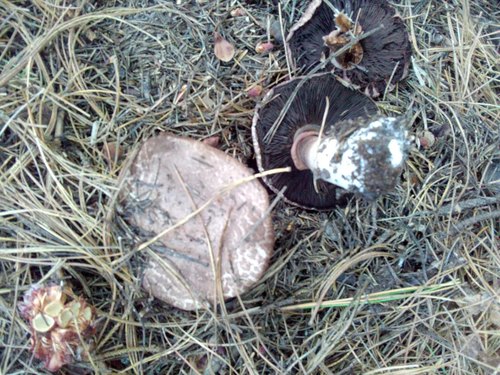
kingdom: Fungi
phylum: Basidiomycota
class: Agaricomycetes
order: Agaricales
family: Agaricaceae
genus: Agaricus
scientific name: Agaricus sylvaticus
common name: Blushing wood mushroom
